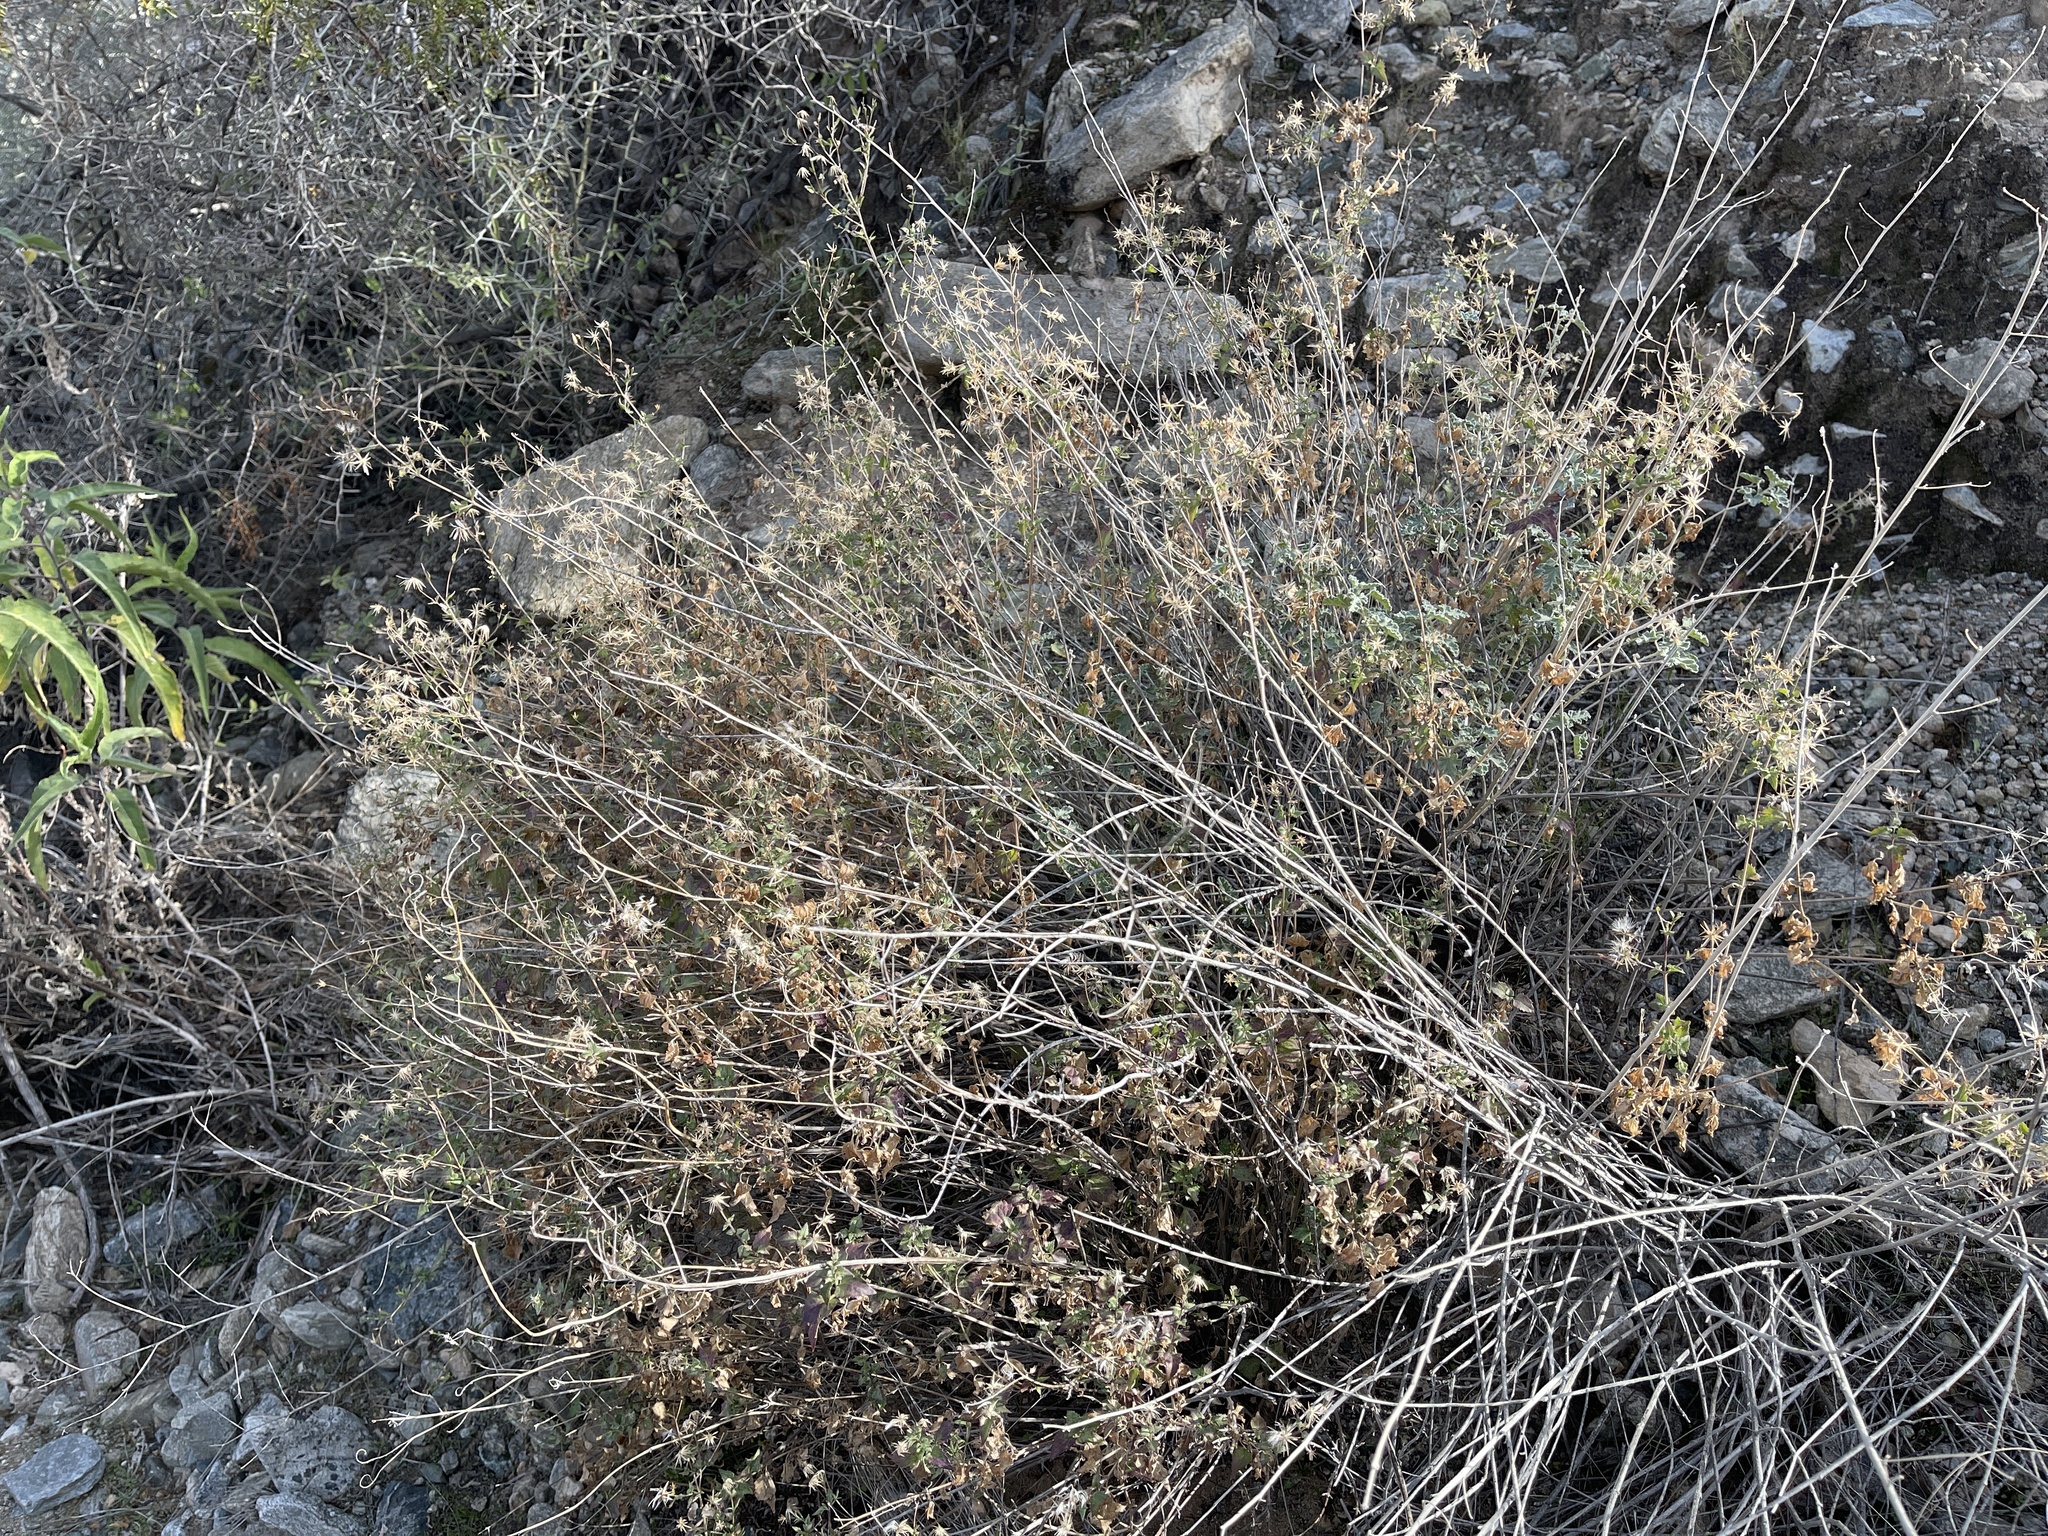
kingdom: Plantae
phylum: Tracheophyta
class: Magnoliopsida
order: Asterales
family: Asteraceae
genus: Brickellia
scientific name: Brickellia coulteri
